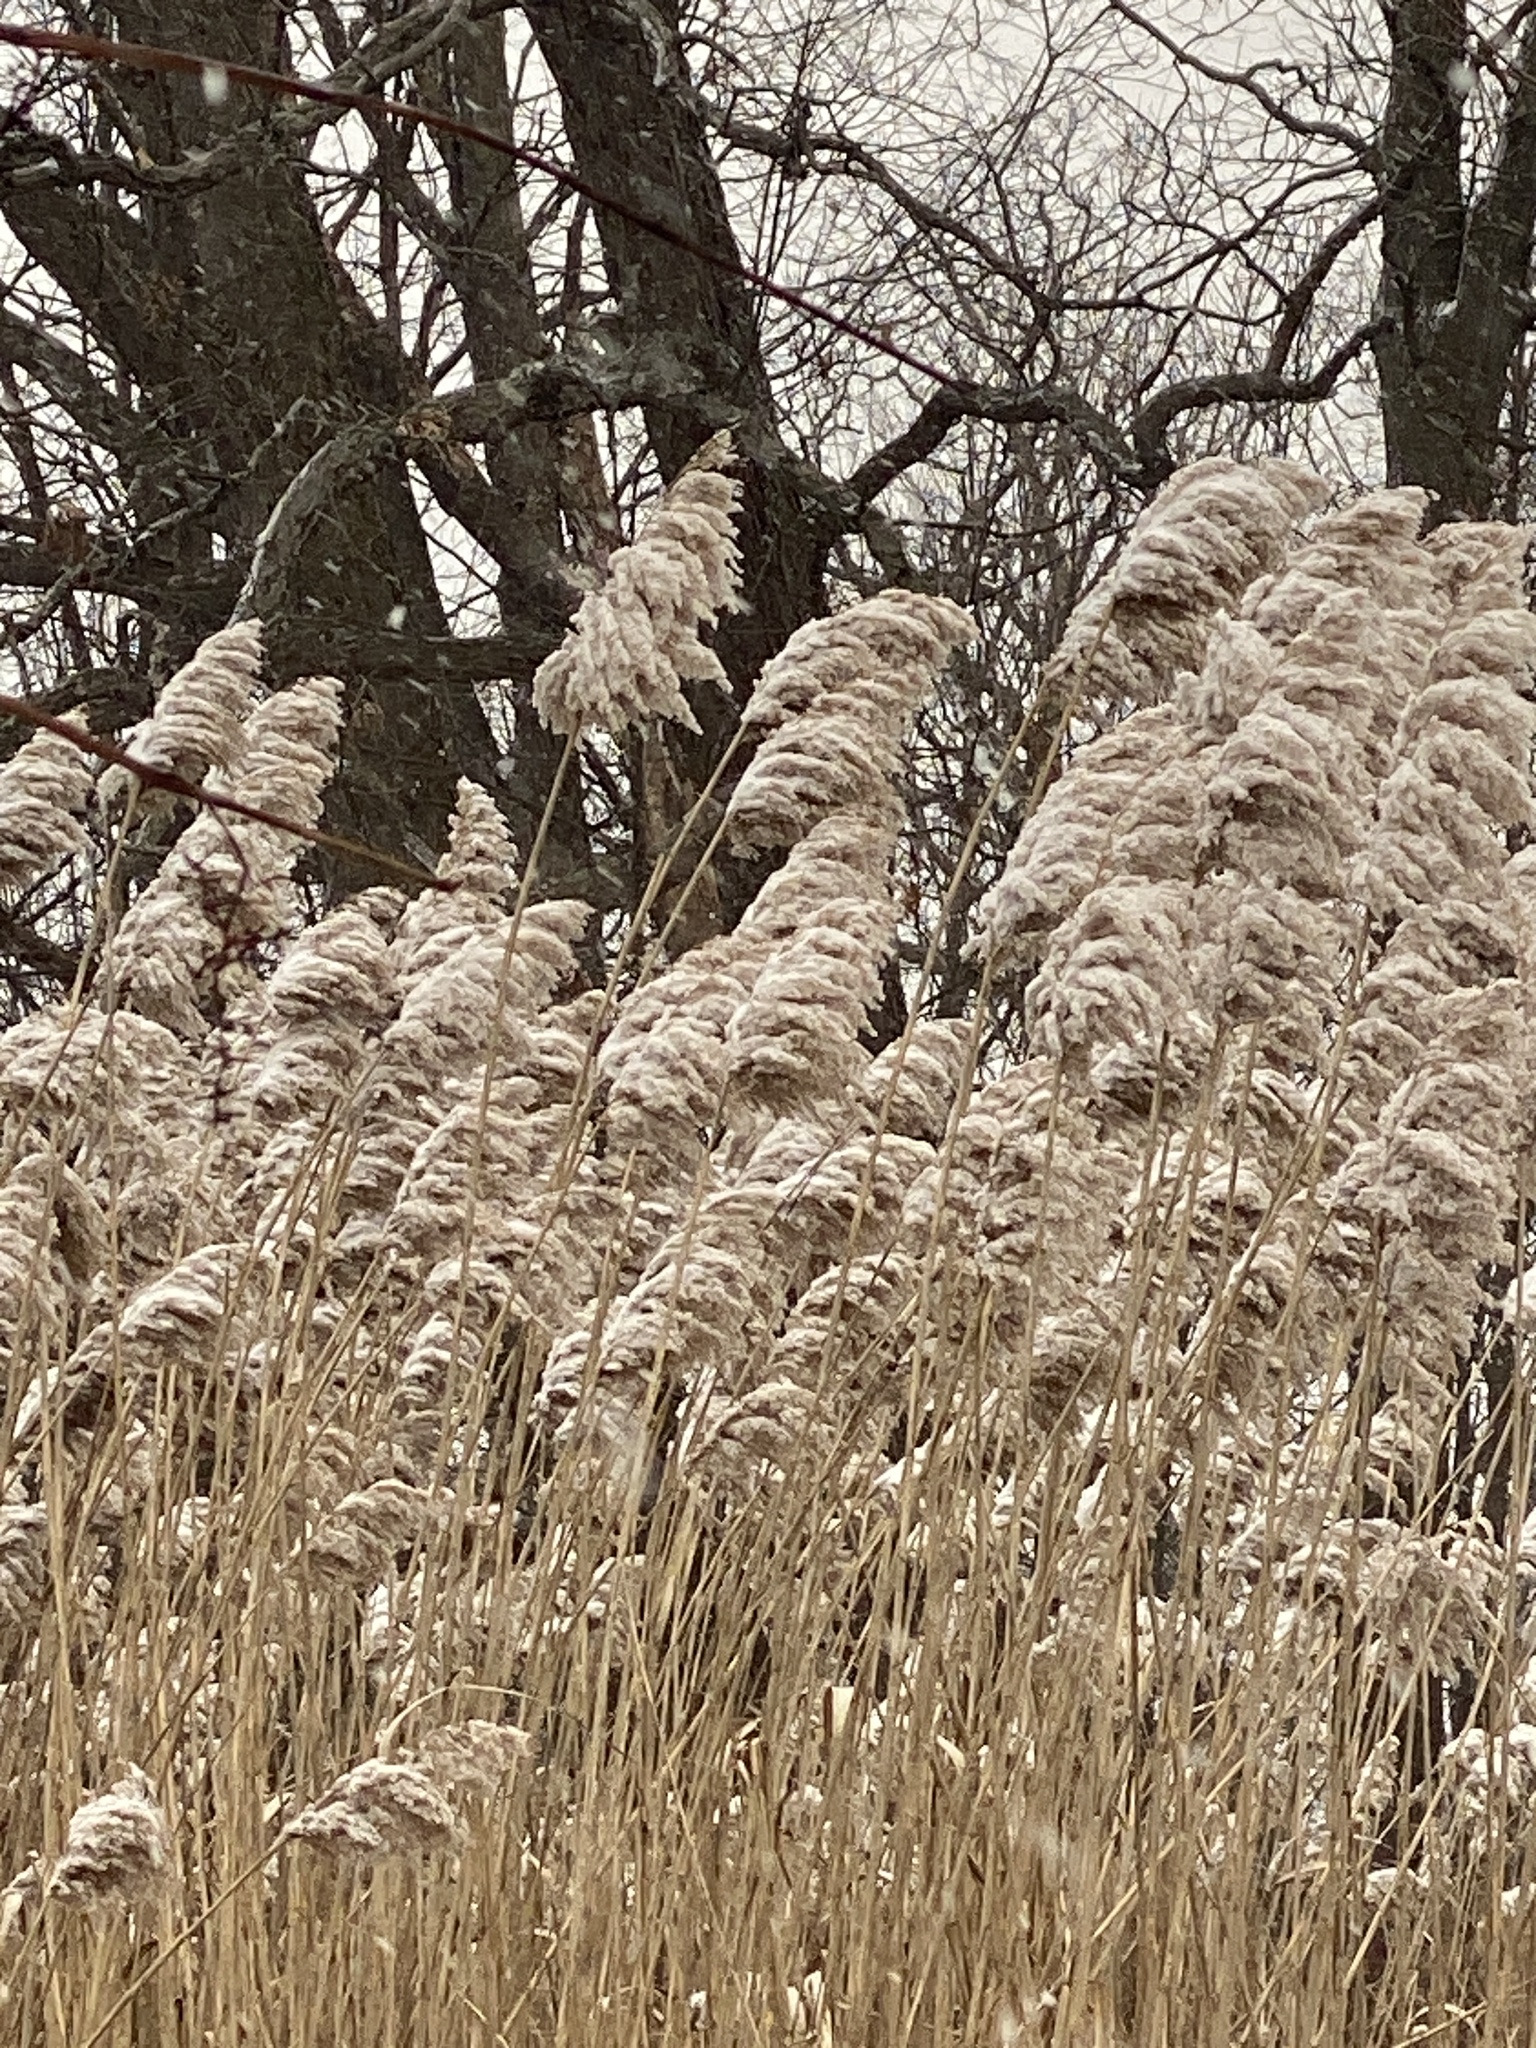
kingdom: Plantae
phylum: Tracheophyta
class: Liliopsida
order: Poales
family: Poaceae
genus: Phragmites
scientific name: Phragmites australis
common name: Common reed
